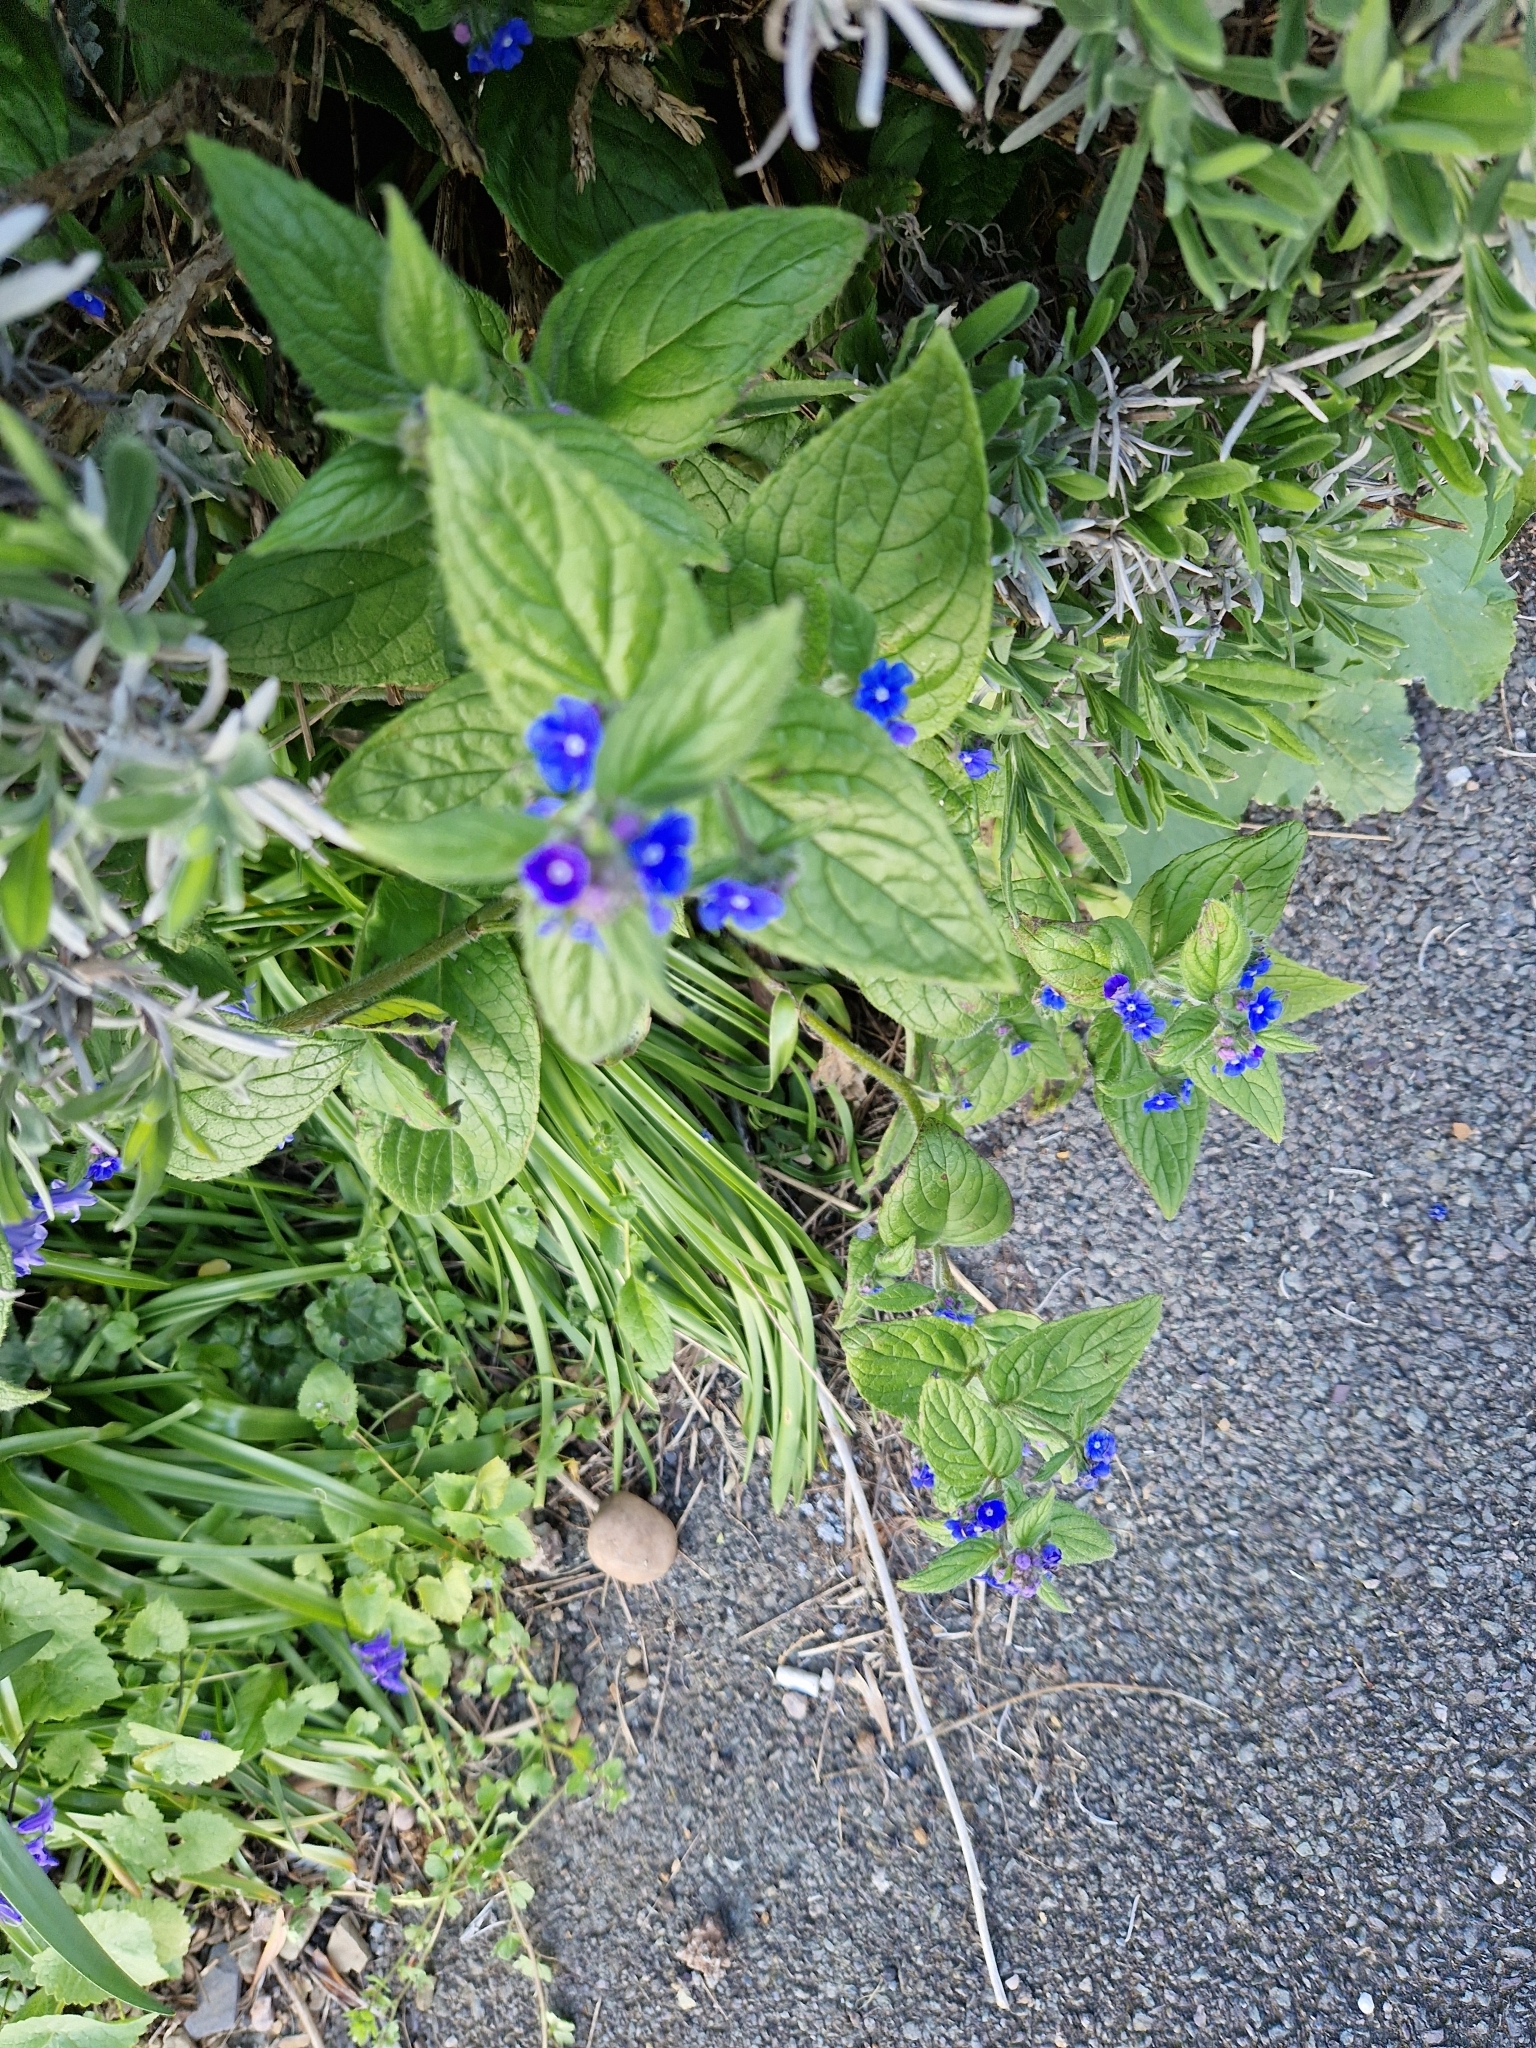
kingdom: Plantae
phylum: Tracheophyta
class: Magnoliopsida
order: Boraginales
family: Boraginaceae
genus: Pentaglottis
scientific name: Pentaglottis sempervirens
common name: Green alkanet
